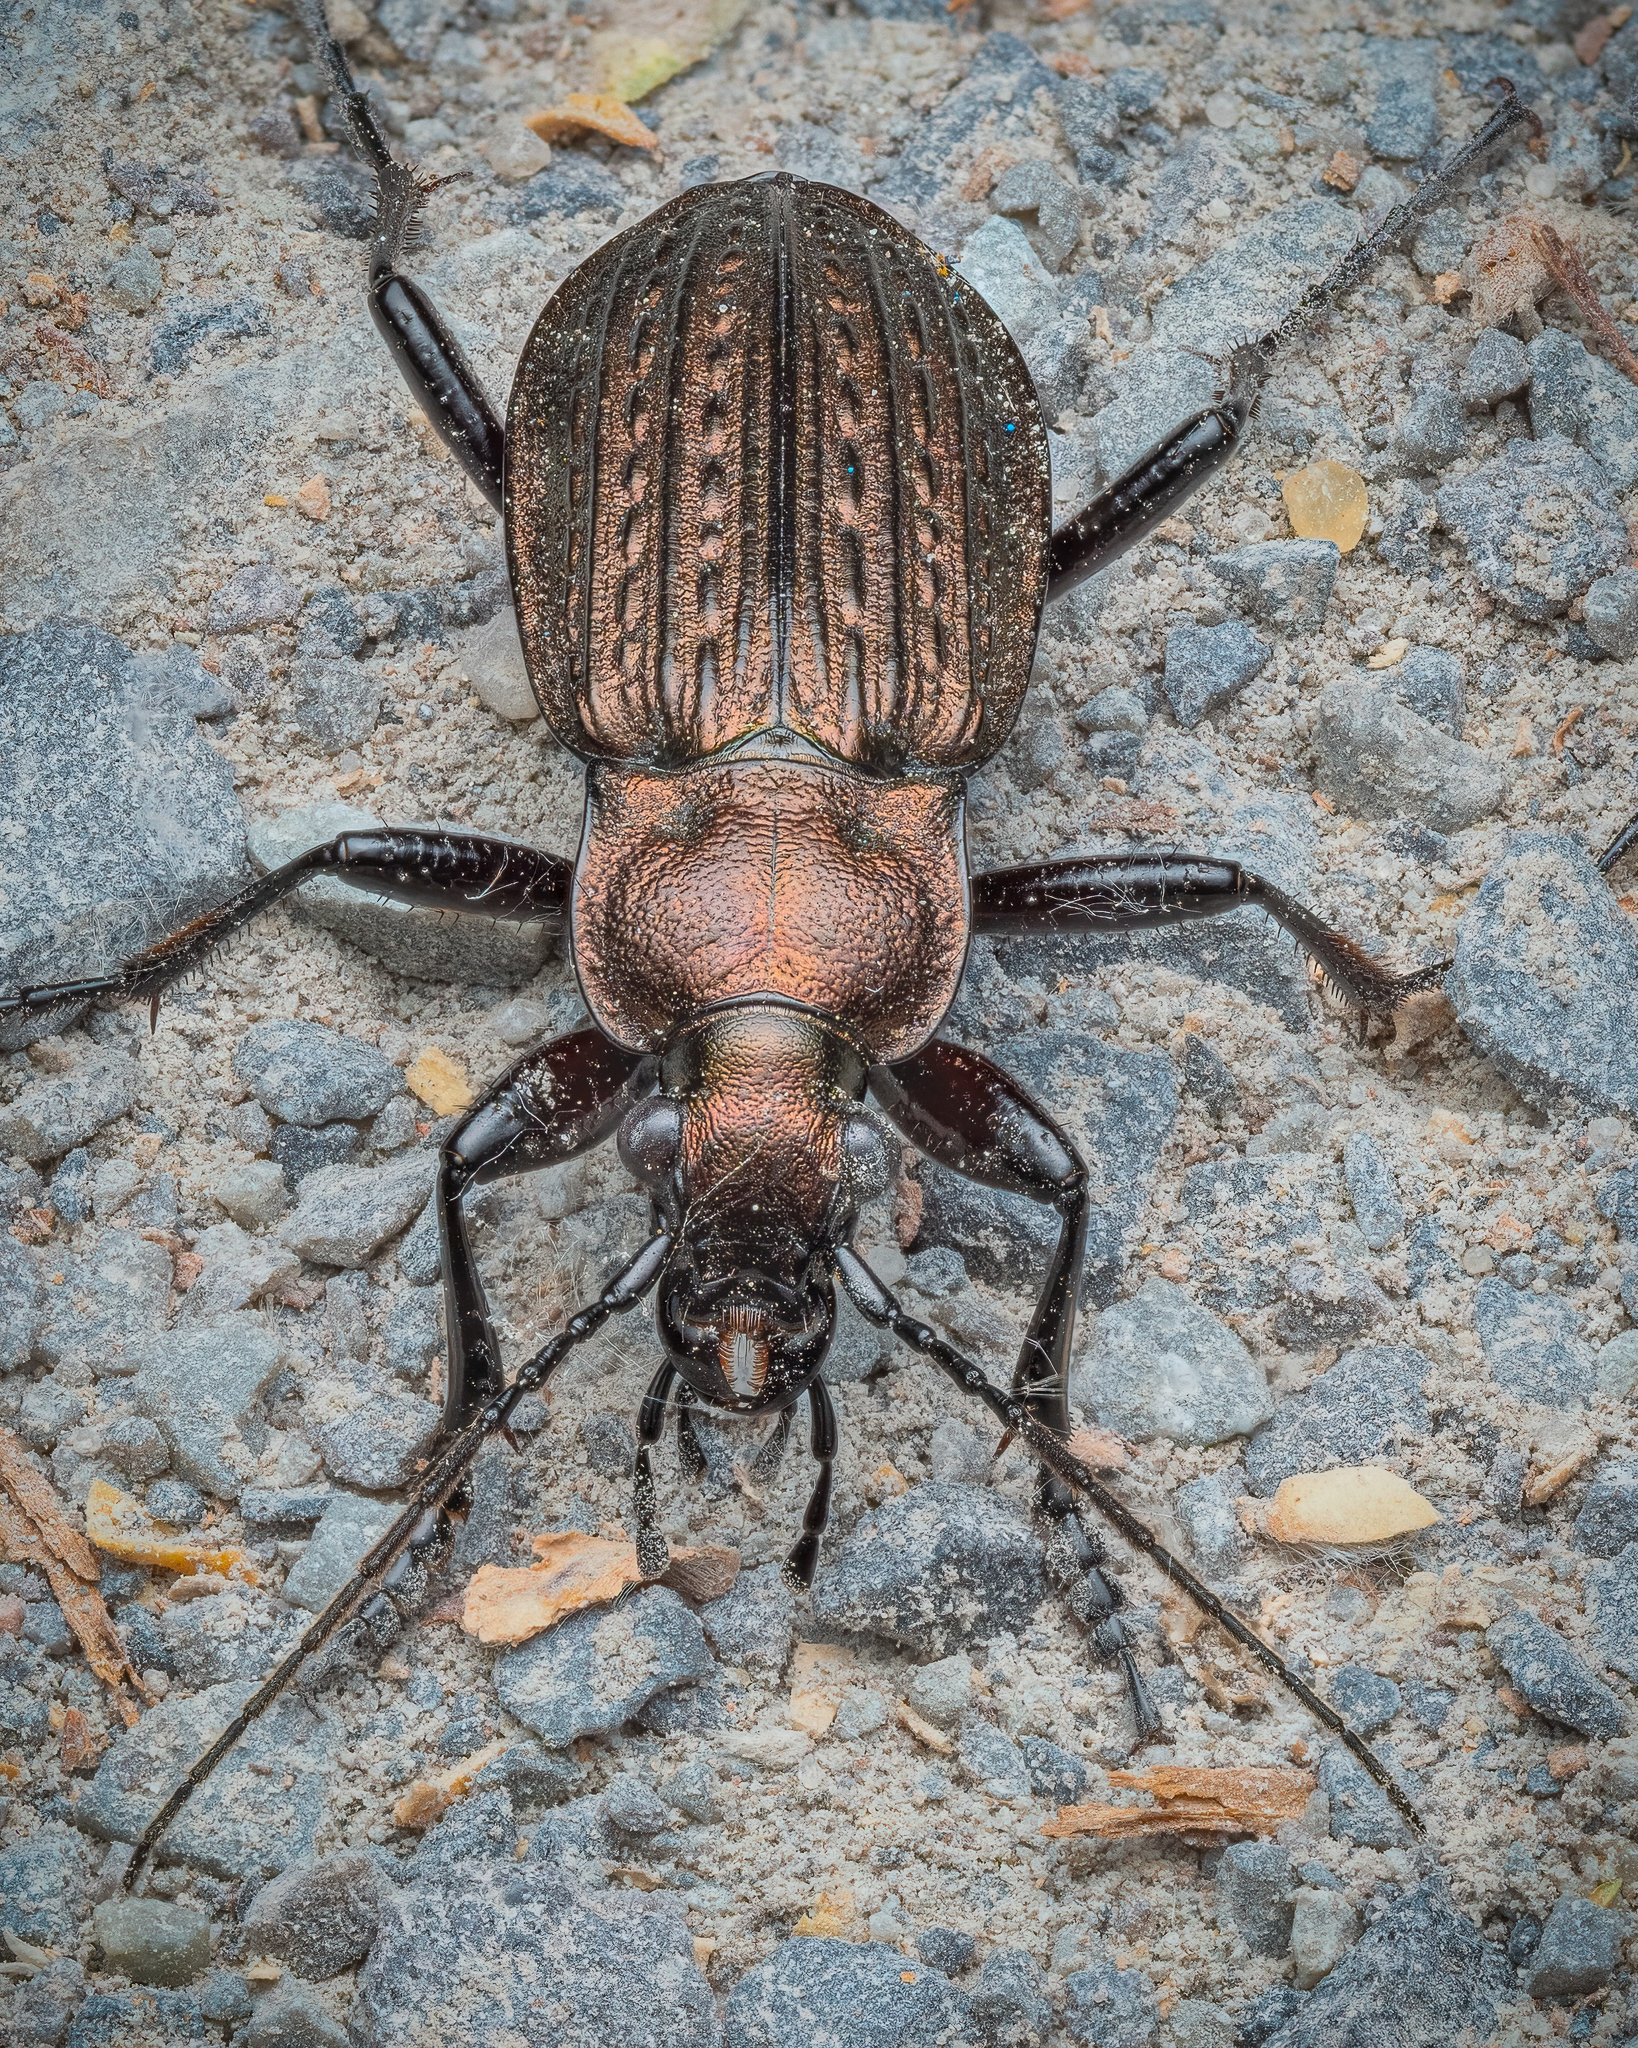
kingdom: Animalia
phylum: Arthropoda
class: Insecta
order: Coleoptera
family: Carabidae
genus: Carabus
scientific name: Carabus granulatus
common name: Granulate ground beetle
